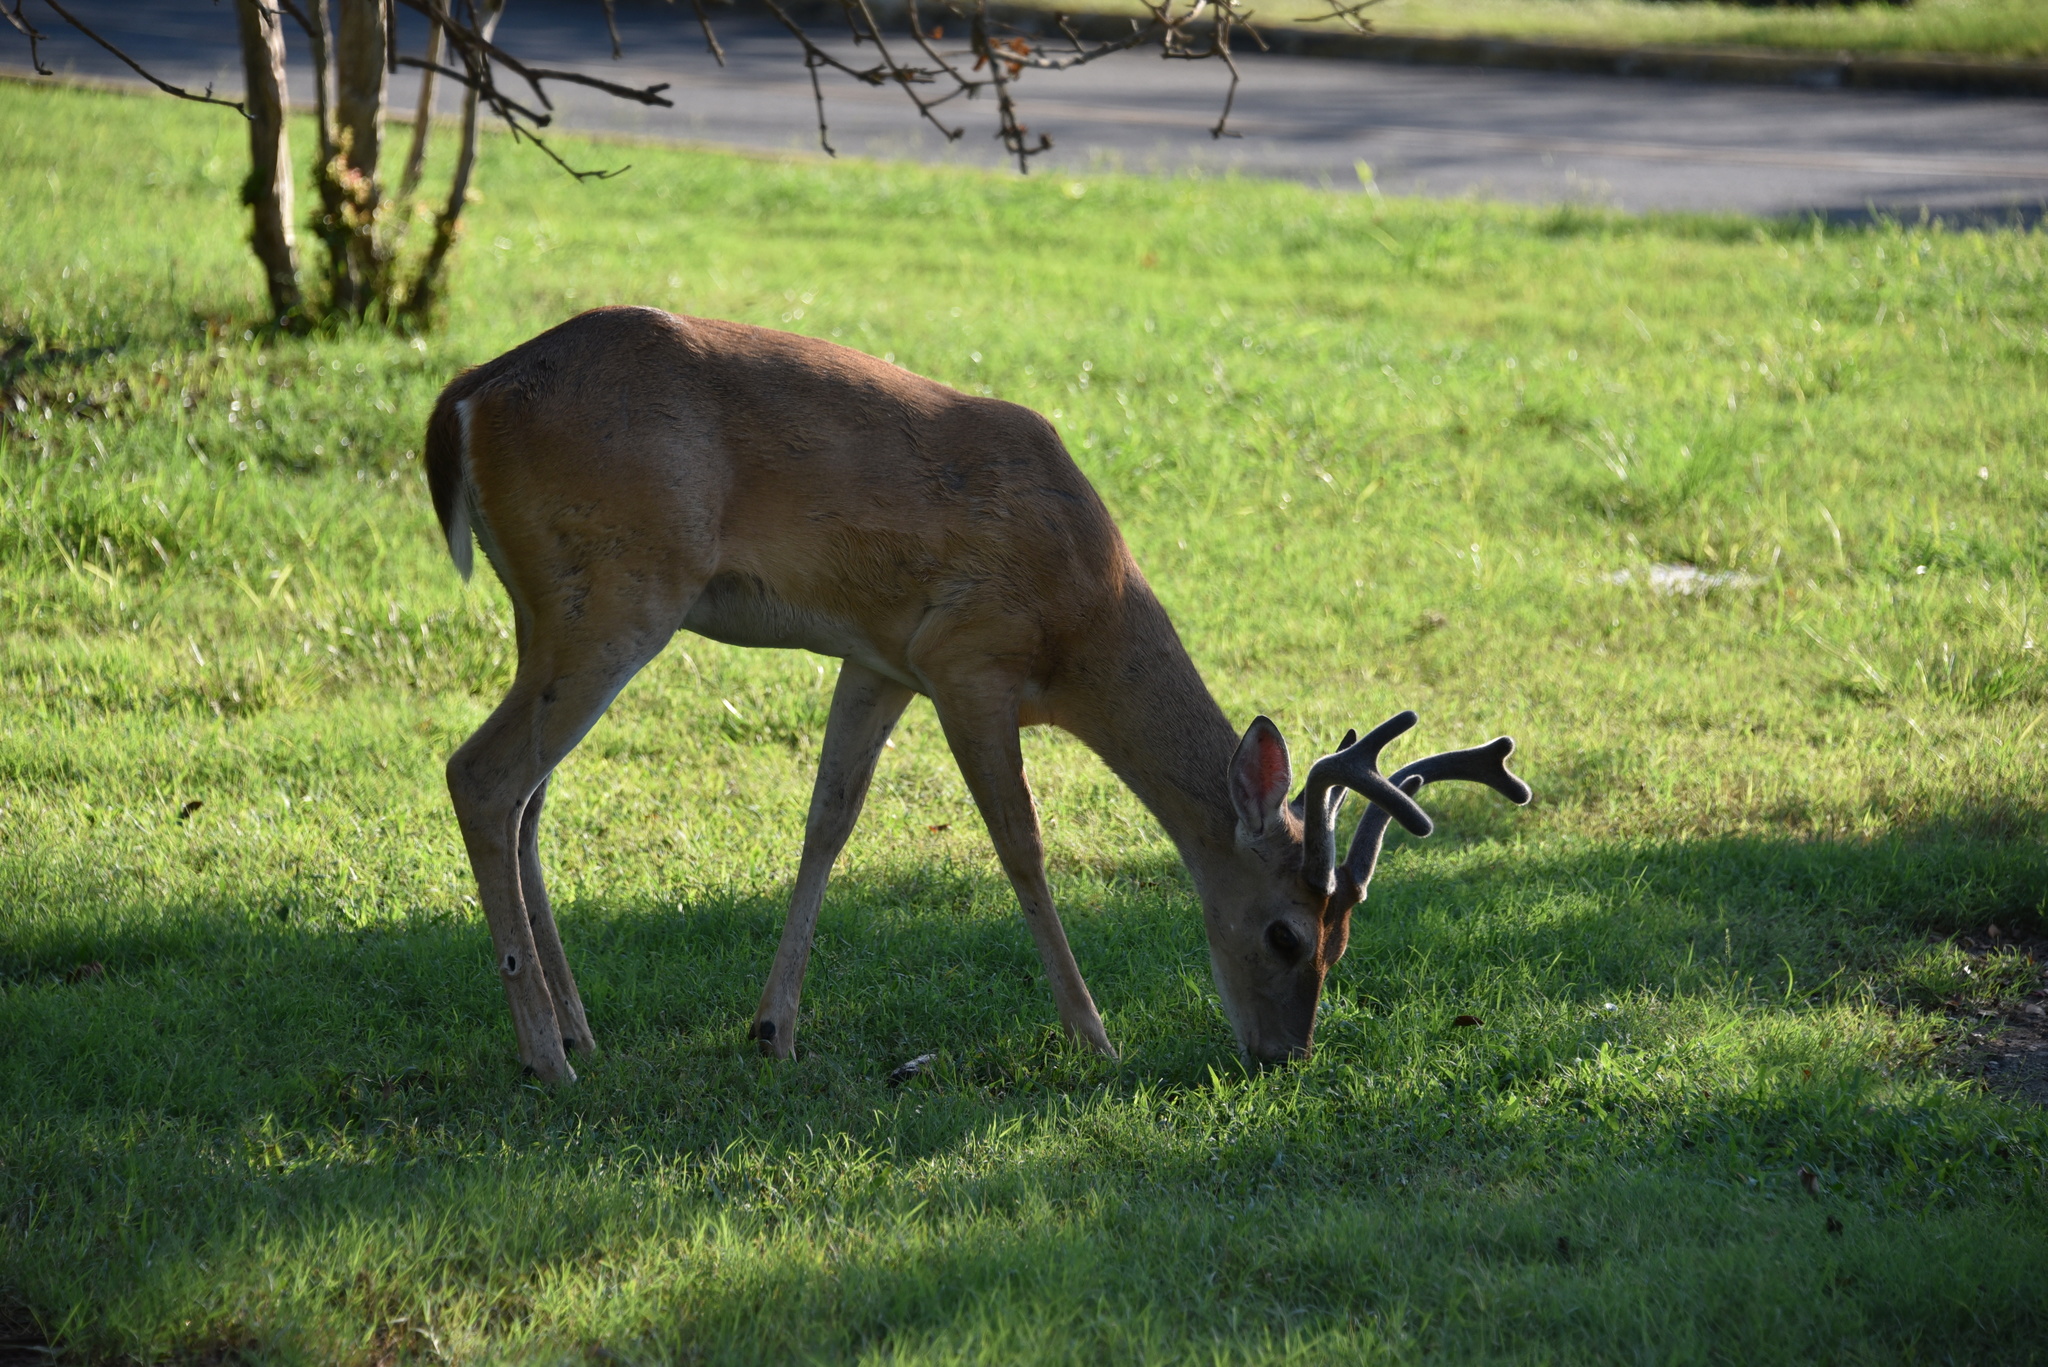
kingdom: Animalia
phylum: Chordata
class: Mammalia
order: Artiodactyla
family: Cervidae
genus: Odocoileus
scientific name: Odocoileus virginianus
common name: White-tailed deer
